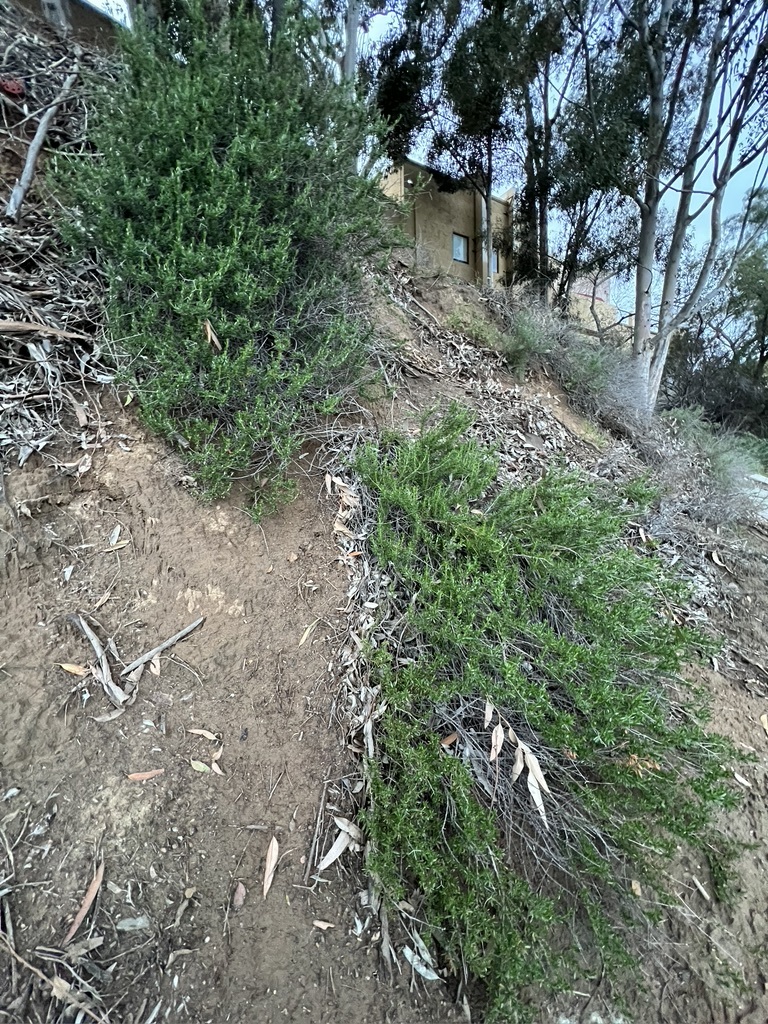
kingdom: Plantae
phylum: Tracheophyta
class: Magnoliopsida
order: Caryophyllales
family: Polygonaceae
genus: Eriogonum
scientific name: Eriogonum fasciculatum
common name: California wild buckwheat
